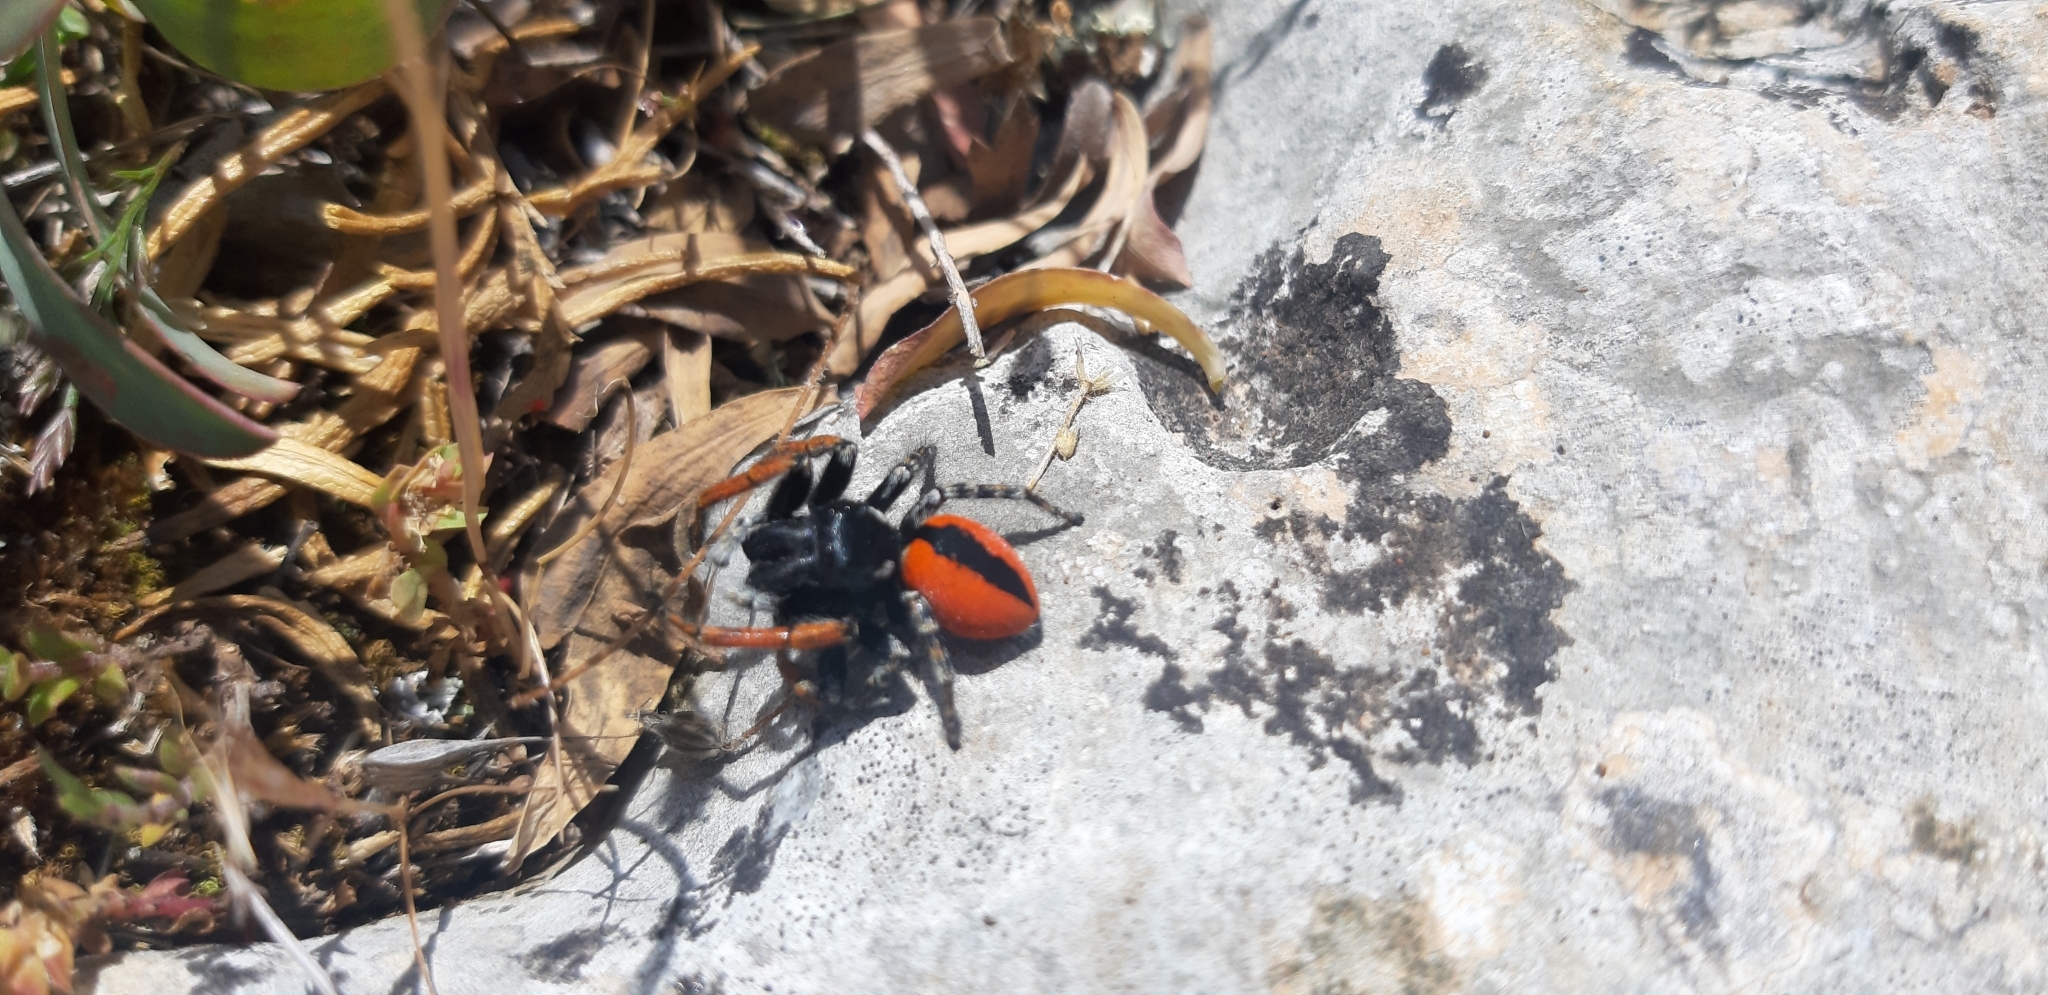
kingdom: Animalia
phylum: Arthropoda
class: Arachnida
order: Araneae
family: Salticidae
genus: Philaeus
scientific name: Philaeus chrysops
